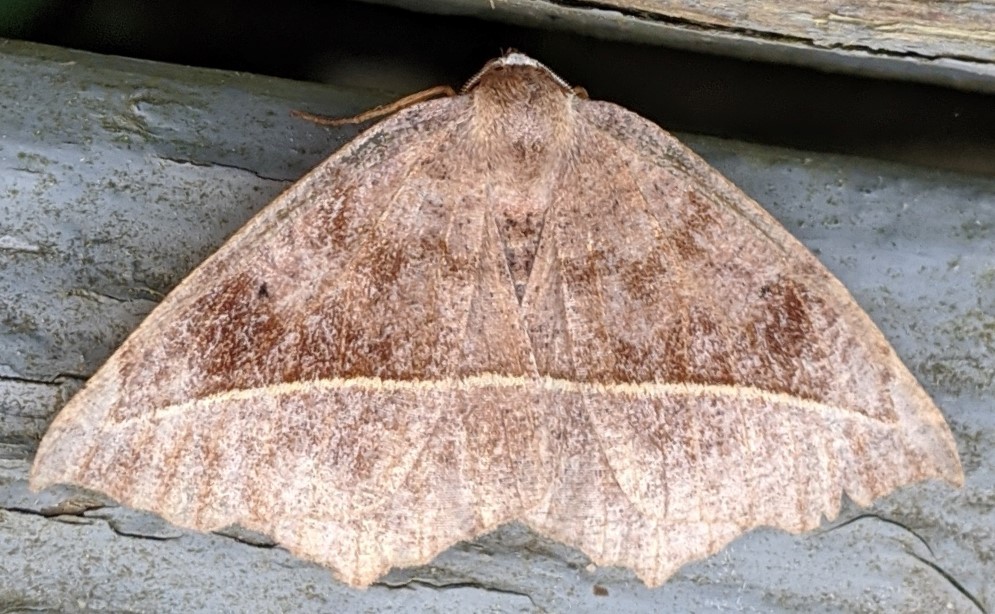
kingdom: Animalia
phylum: Arthropoda
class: Insecta
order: Lepidoptera
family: Geometridae
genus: Eutrapela
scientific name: Eutrapela clemataria
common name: Curved-toothed geometer
